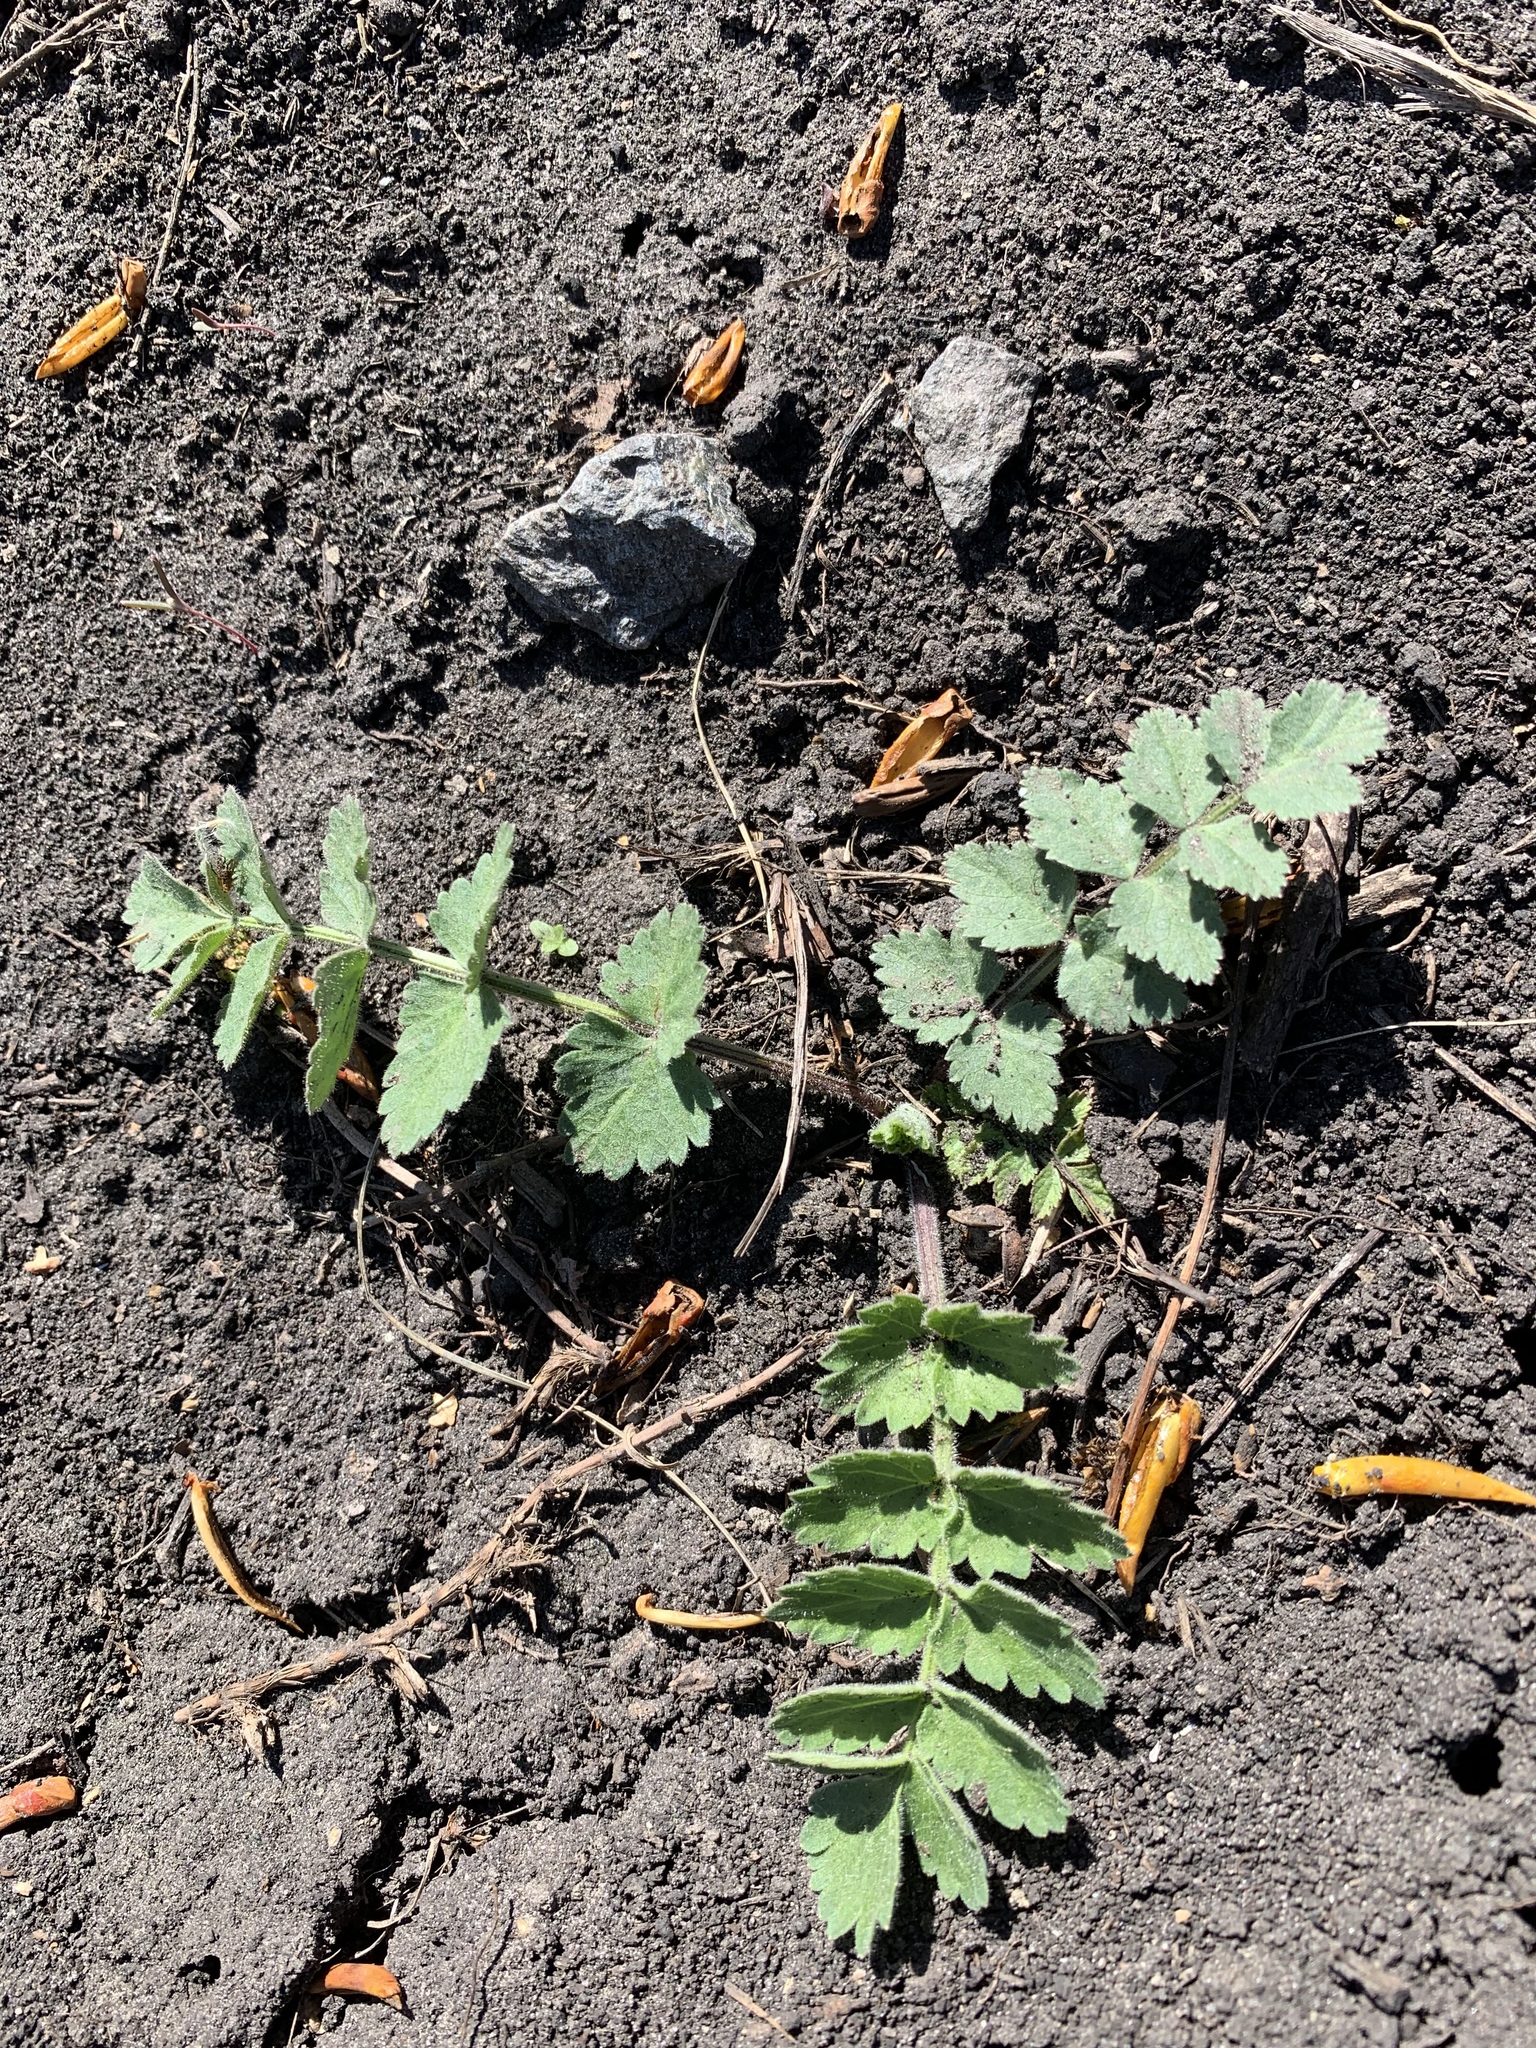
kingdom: Plantae
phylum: Tracheophyta
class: Magnoliopsida
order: Apiales
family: Apiaceae
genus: Pimpinella
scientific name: Pimpinella saxifraga
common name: Burnet-saxifrage
